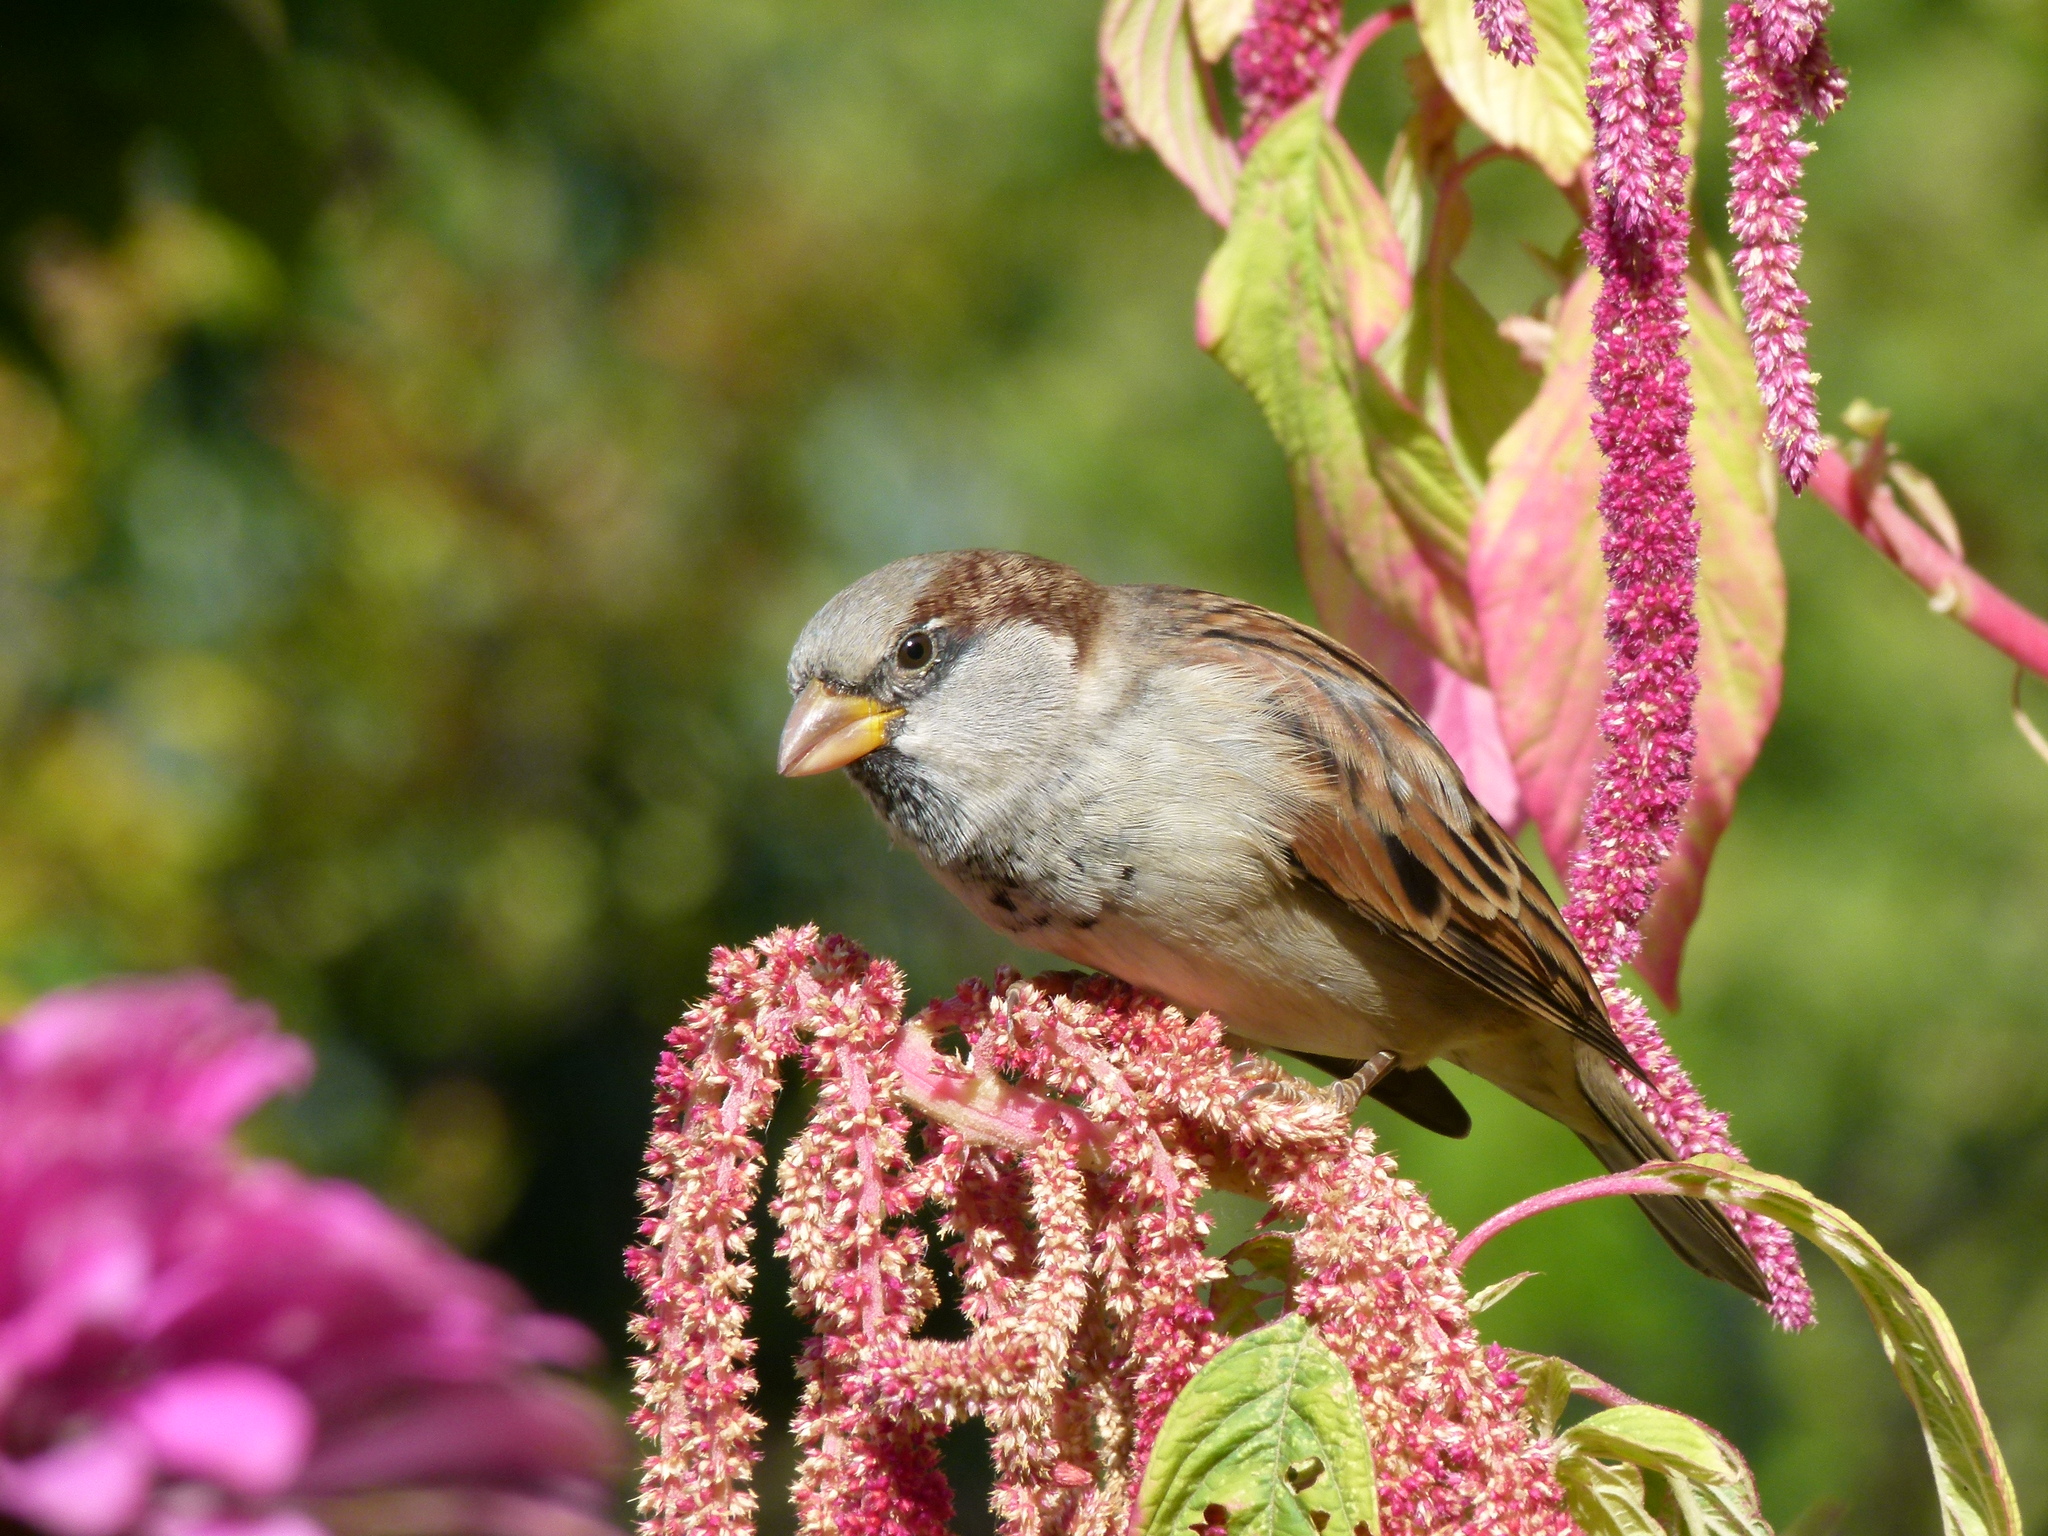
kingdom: Animalia
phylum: Chordata
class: Aves
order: Passeriformes
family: Passeridae
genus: Passer
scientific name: Passer domesticus
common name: House sparrow
